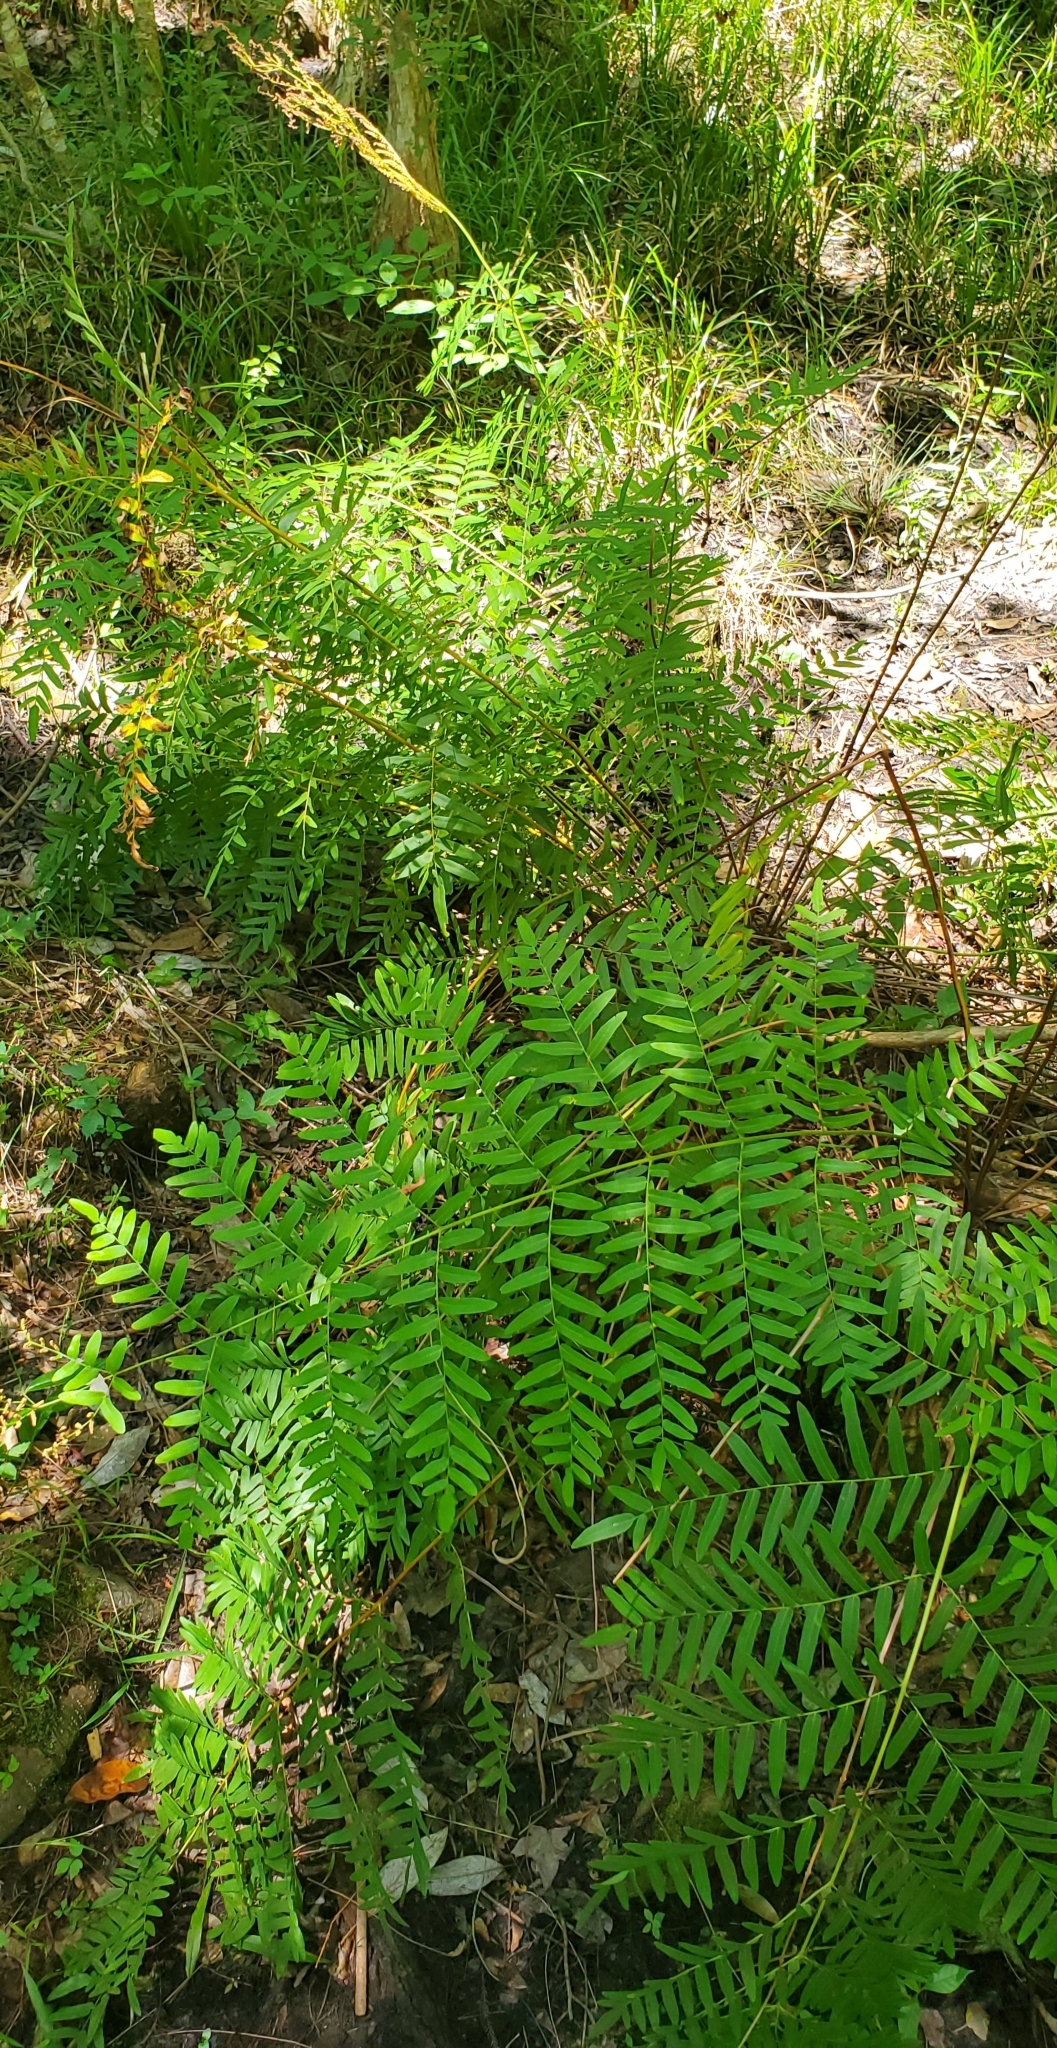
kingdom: Plantae
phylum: Tracheophyta
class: Polypodiopsida
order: Osmundales
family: Osmundaceae
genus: Osmunda
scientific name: Osmunda spectabilis
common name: American royal fern
